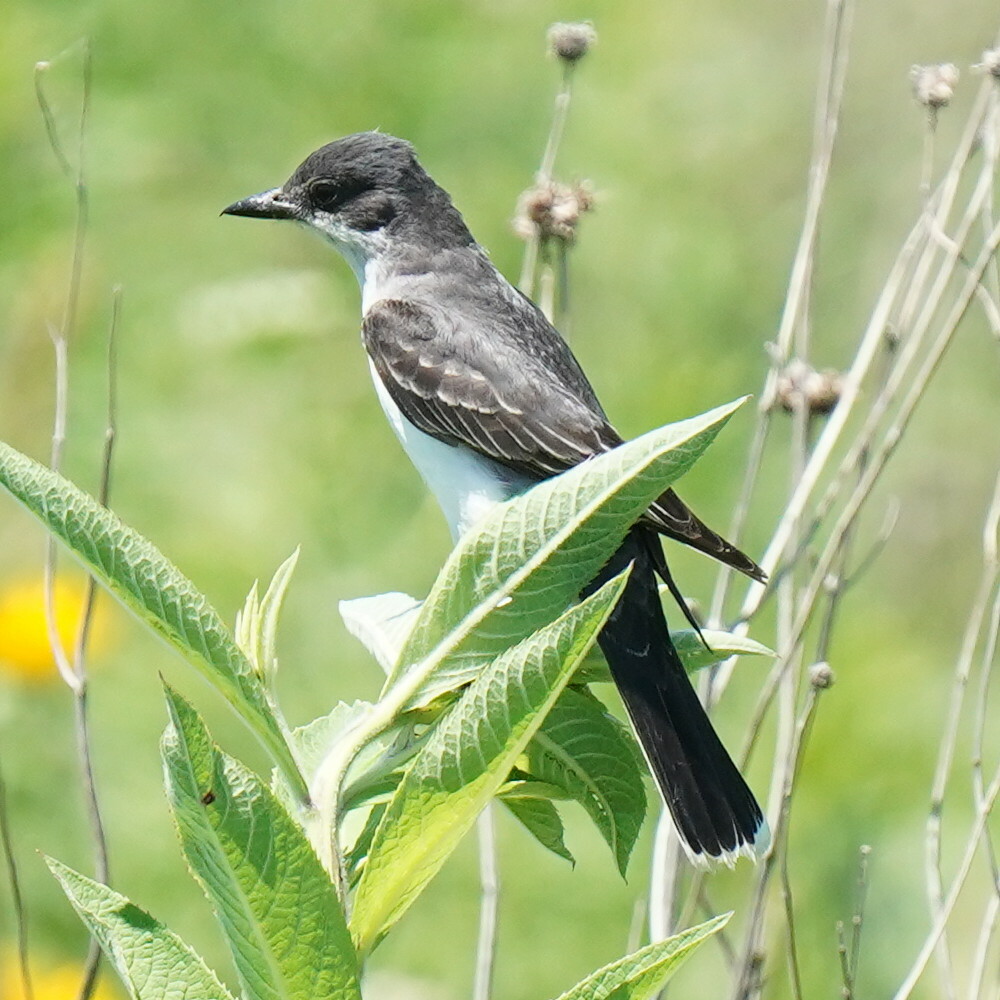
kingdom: Animalia
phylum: Chordata
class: Aves
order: Passeriformes
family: Tyrannidae
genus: Tyrannus
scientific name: Tyrannus tyrannus
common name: Eastern kingbird
